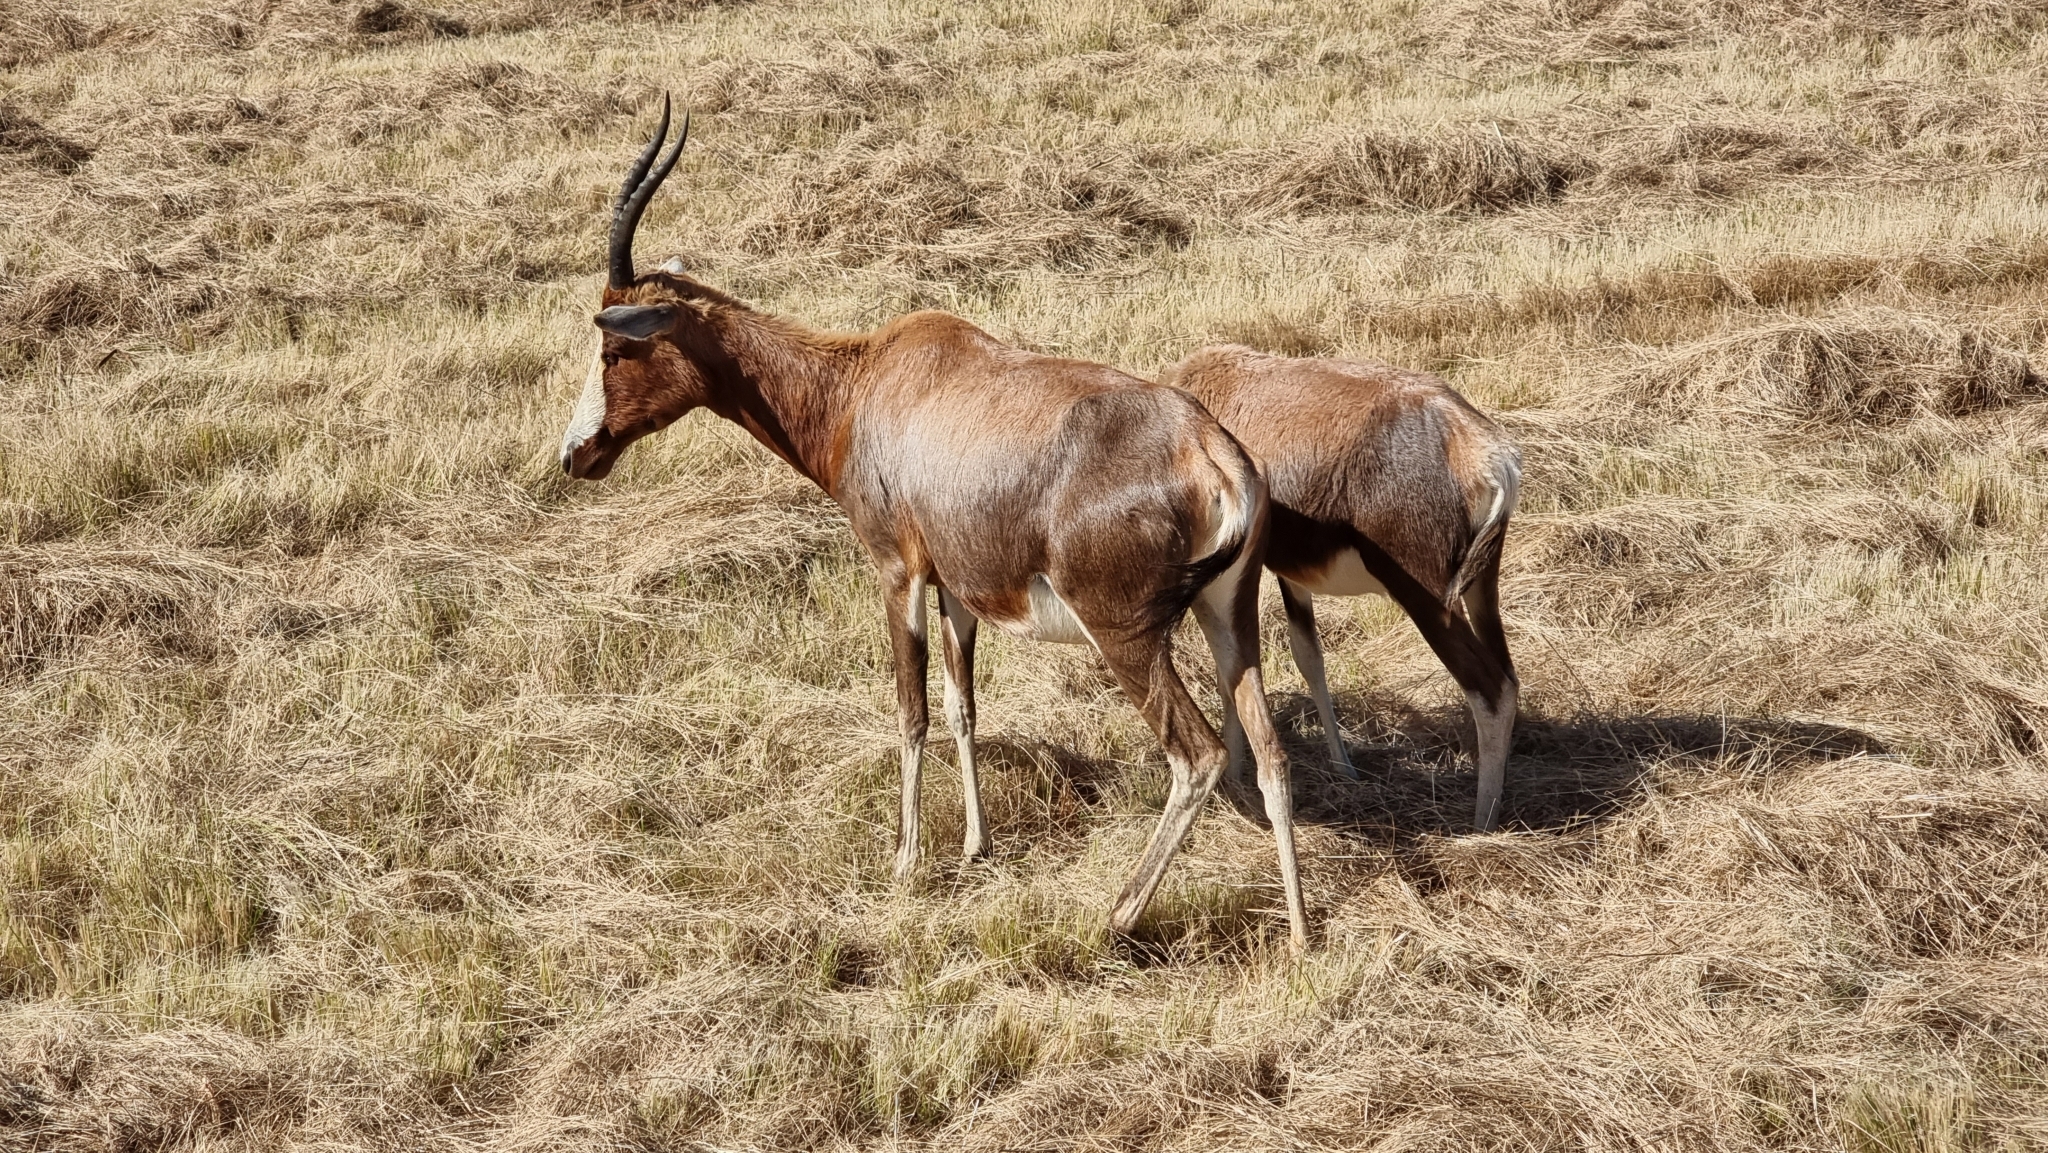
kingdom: Animalia
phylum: Chordata
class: Mammalia
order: Artiodactyla
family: Bovidae
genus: Damaliscus
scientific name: Damaliscus pygargus
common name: Bontebok
